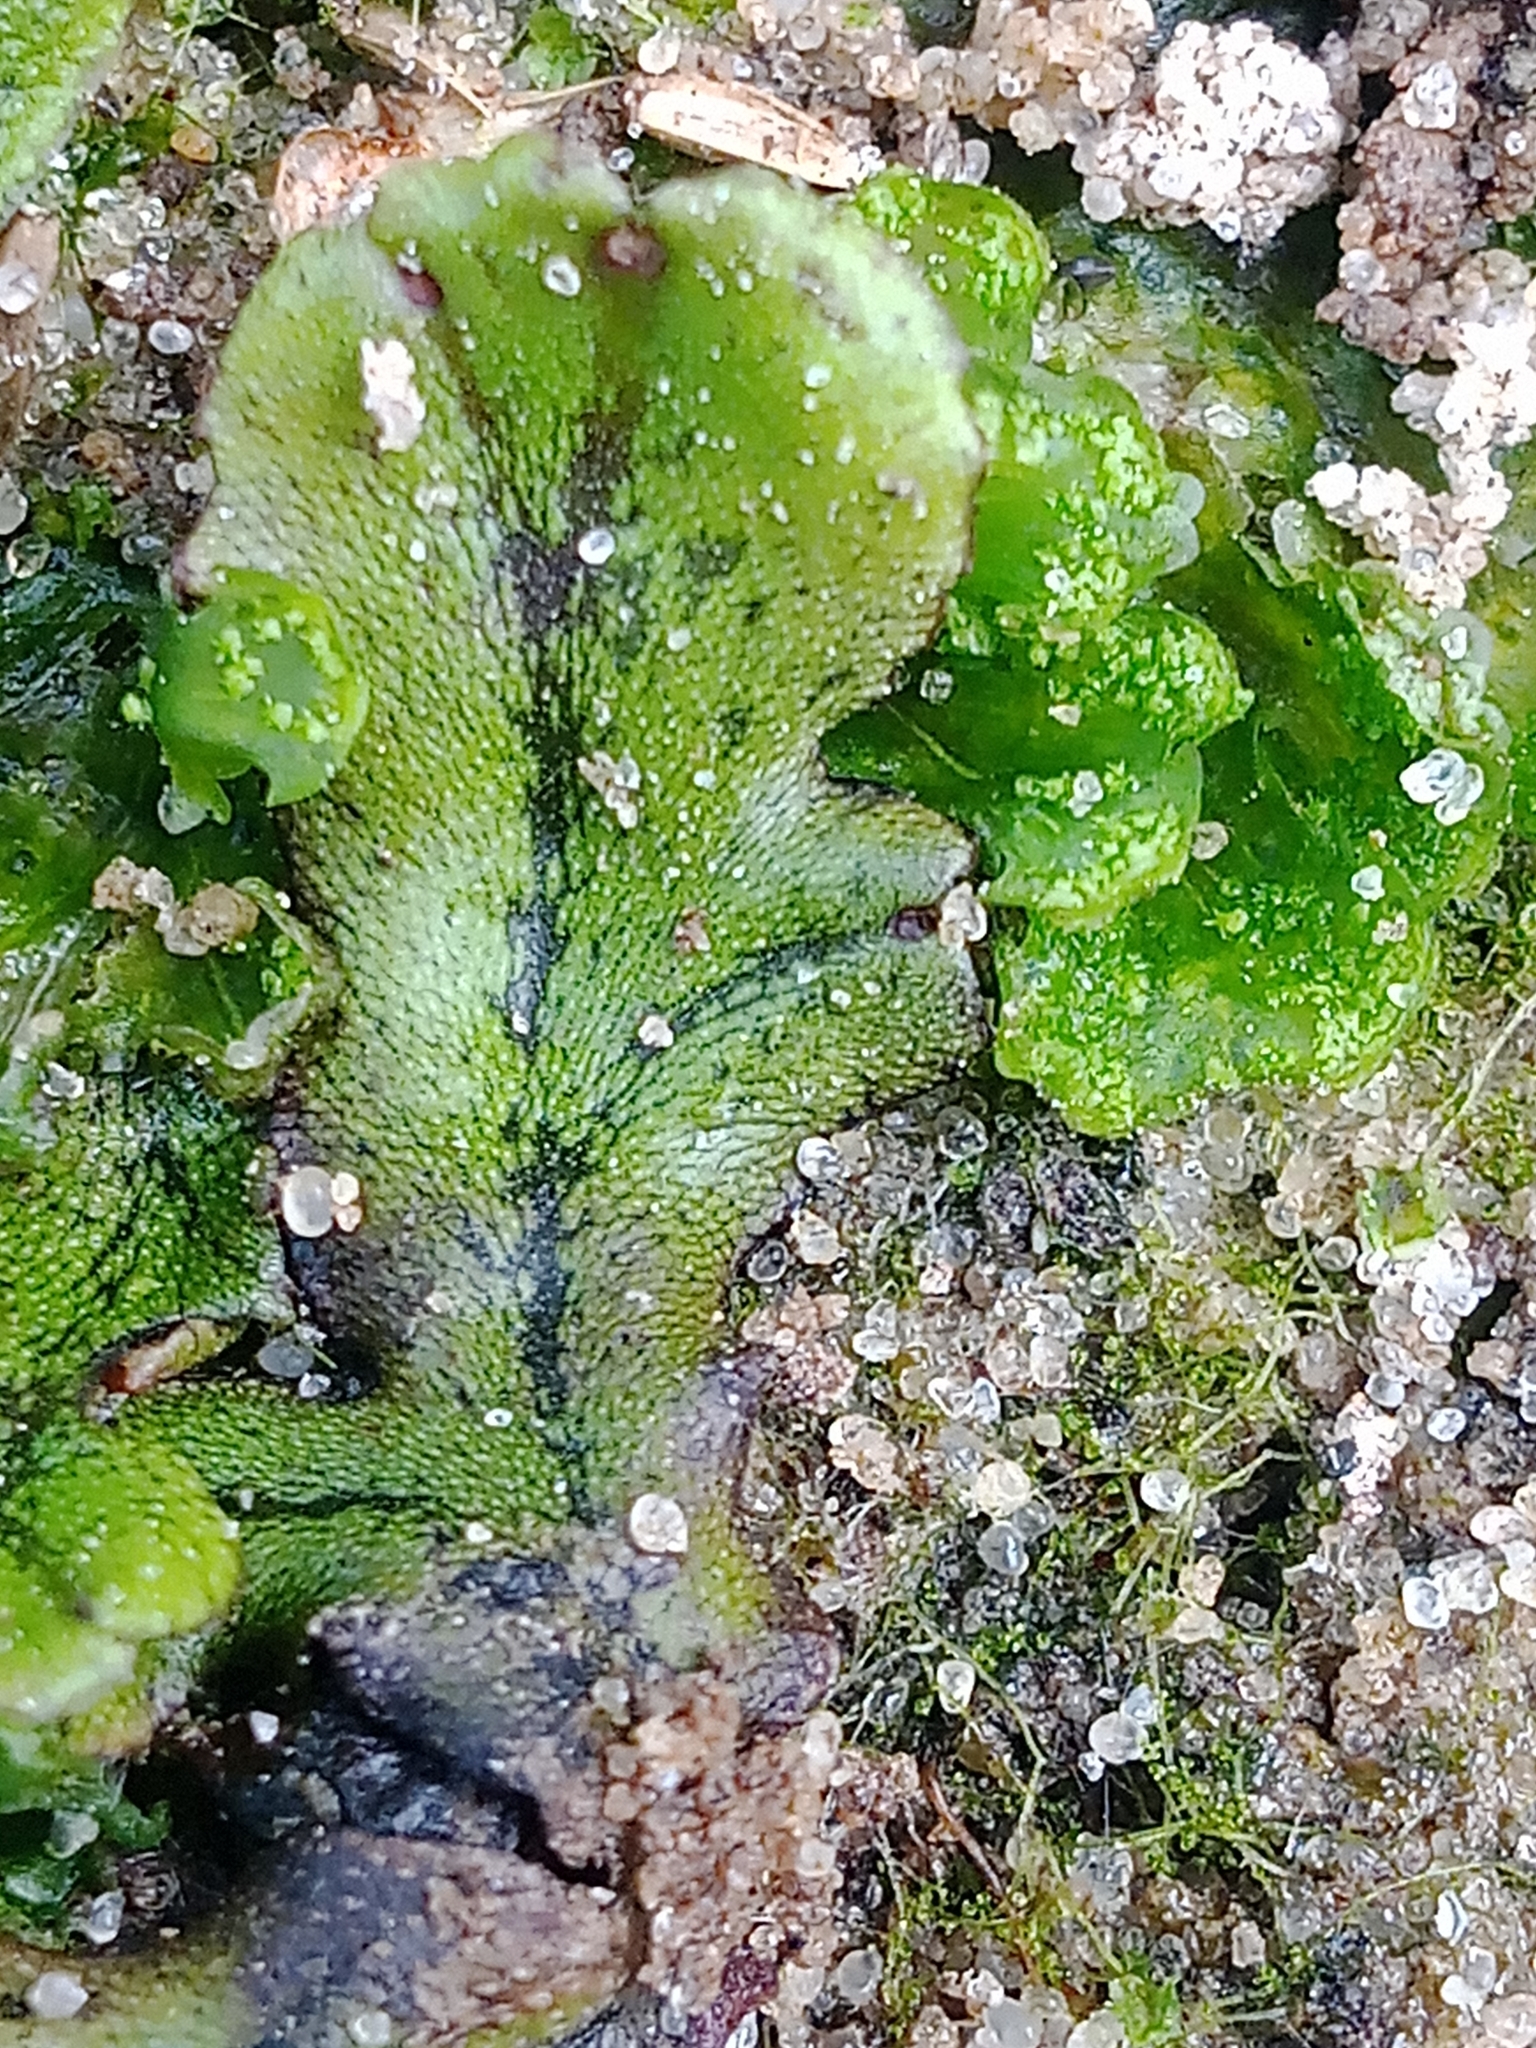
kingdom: Plantae
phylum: Marchantiophyta
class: Marchantiopsida
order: Marchantiales
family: Marchantiaceae
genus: Marchantia
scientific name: Marchantia polymorpha
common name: Common liverwort
